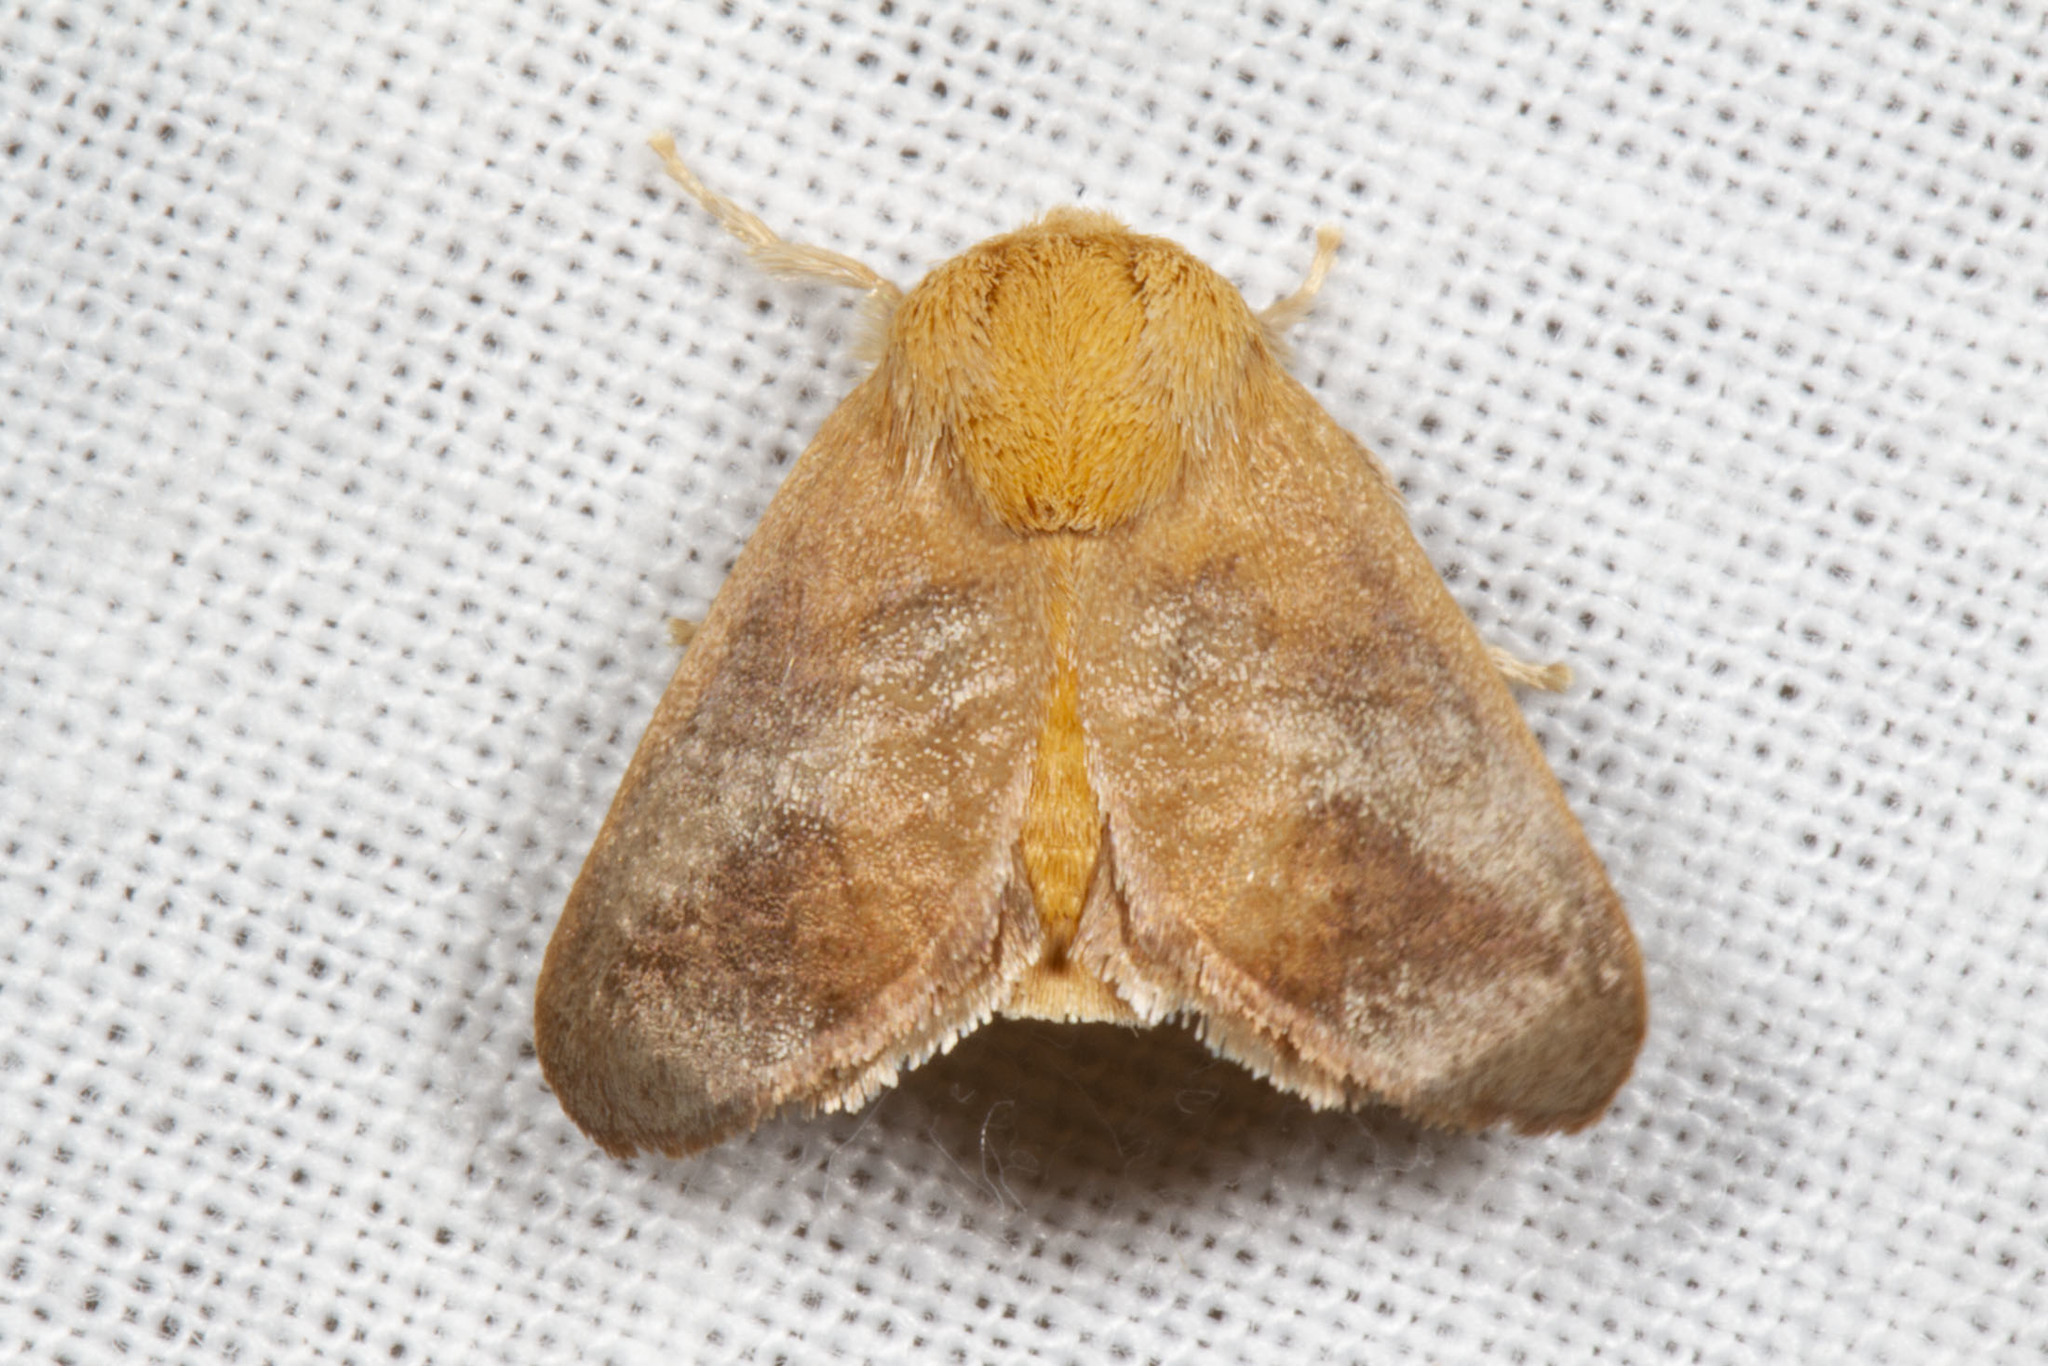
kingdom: Animalia
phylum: Arthropoda
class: Insecta
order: Lepidoptera
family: Limacodidae
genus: Isa
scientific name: Isa textula
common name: Crowned slug moth
